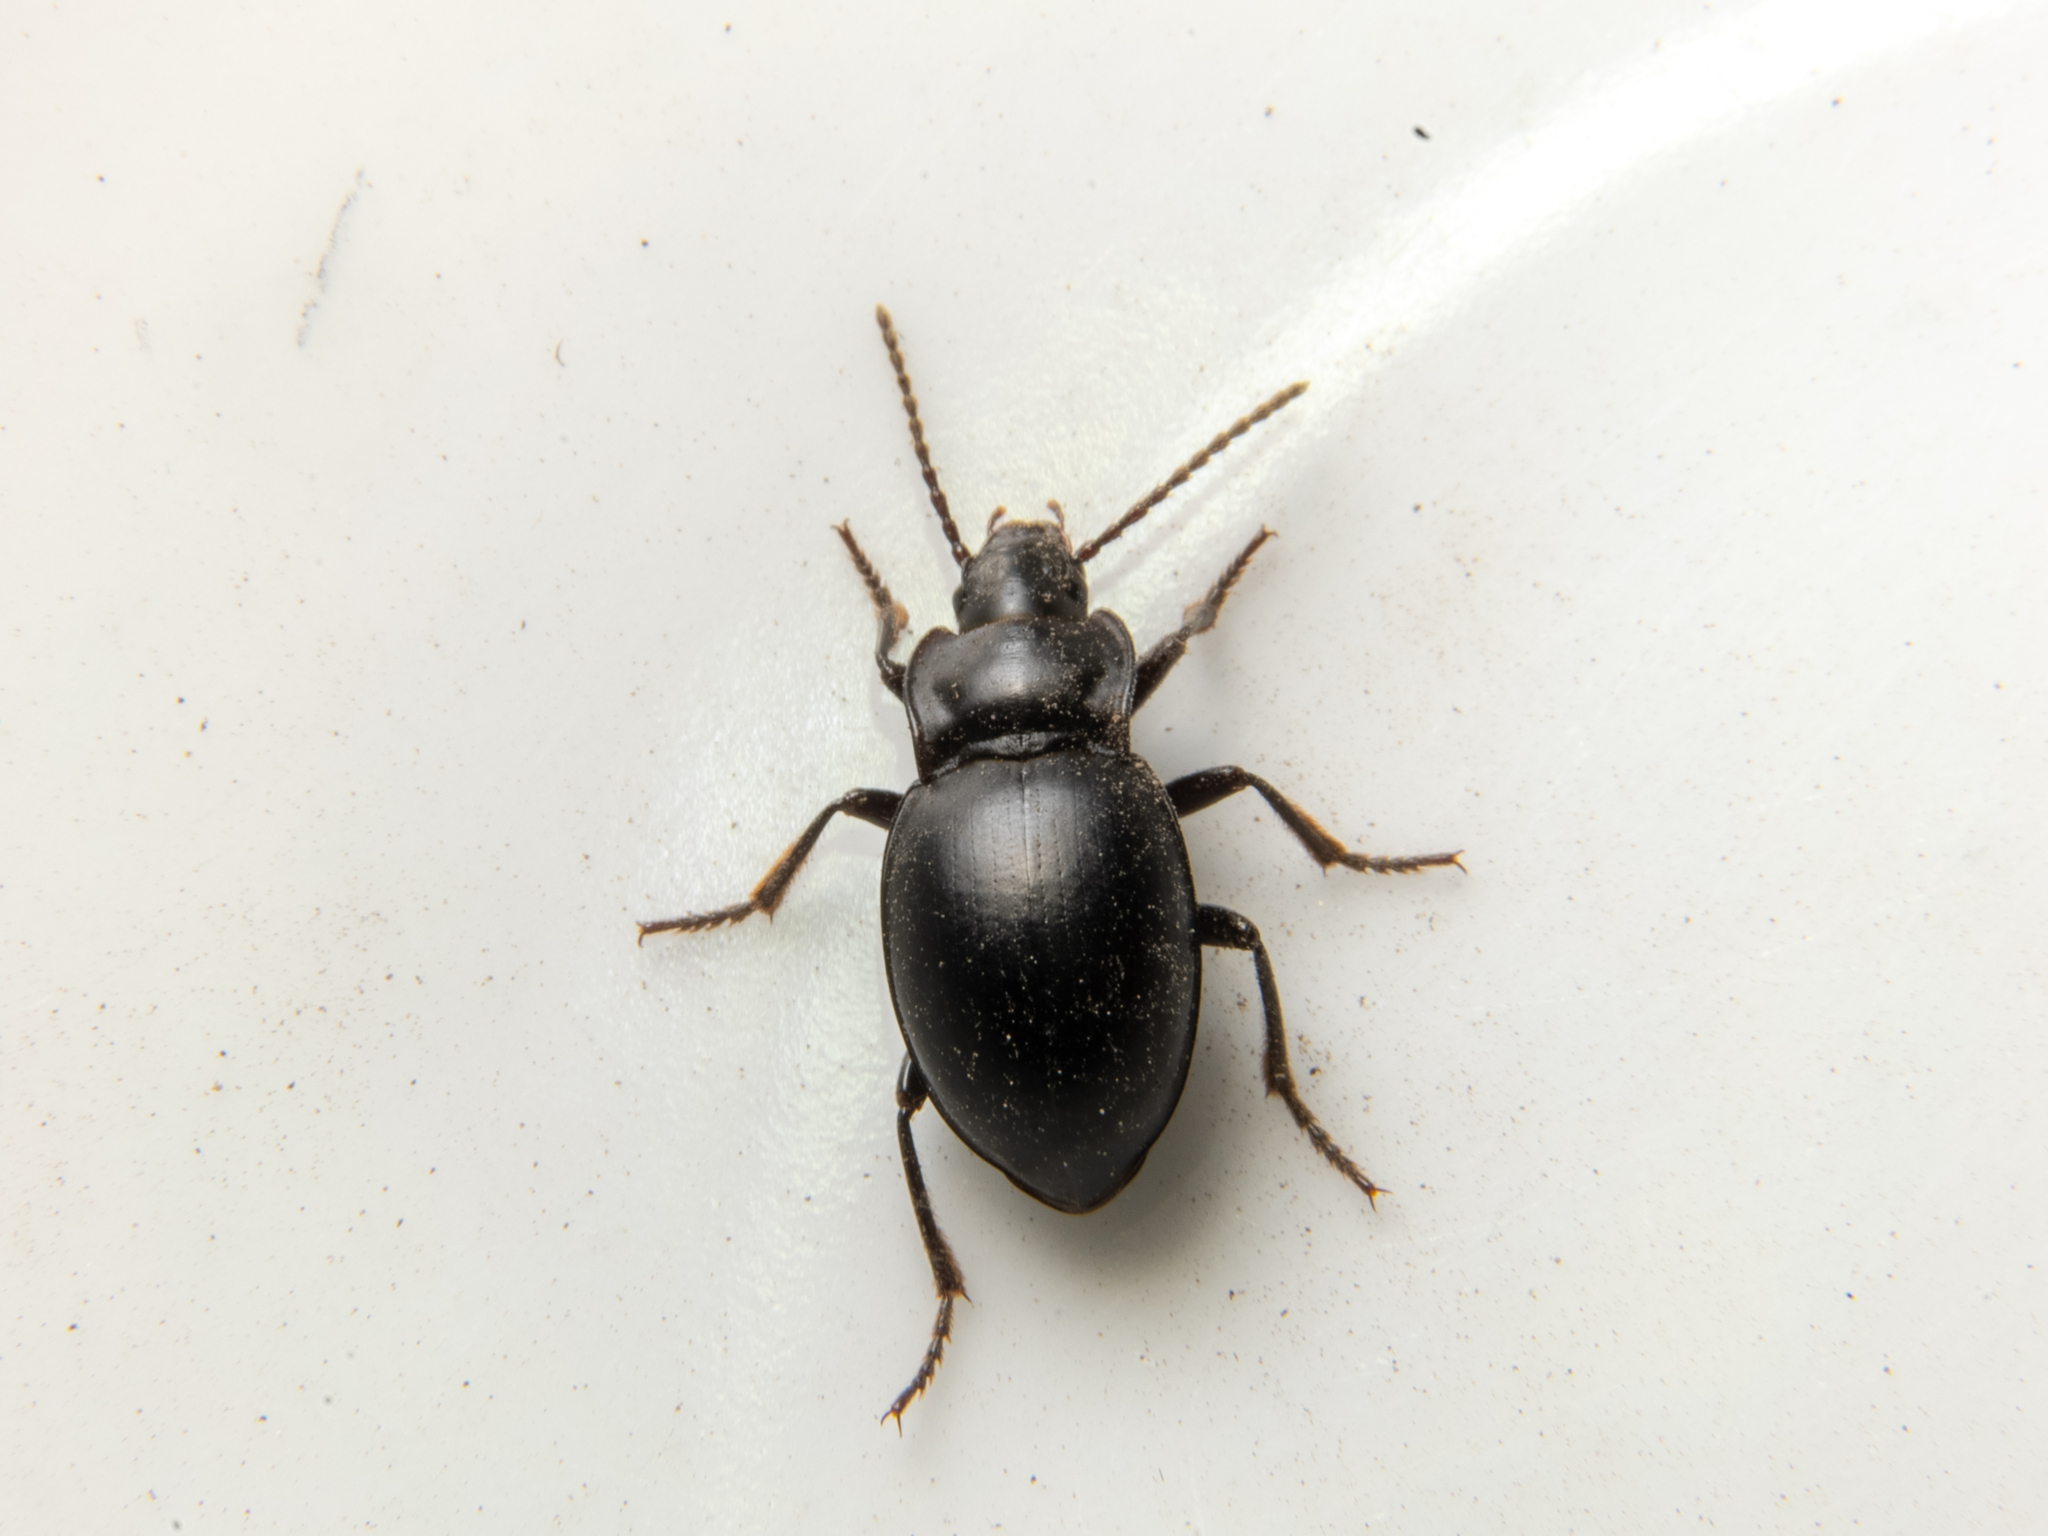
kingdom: Animalia
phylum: Arthropoda
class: Insecta
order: Coleoptera
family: Carabidae
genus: Metrius
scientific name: Metrius contractus
